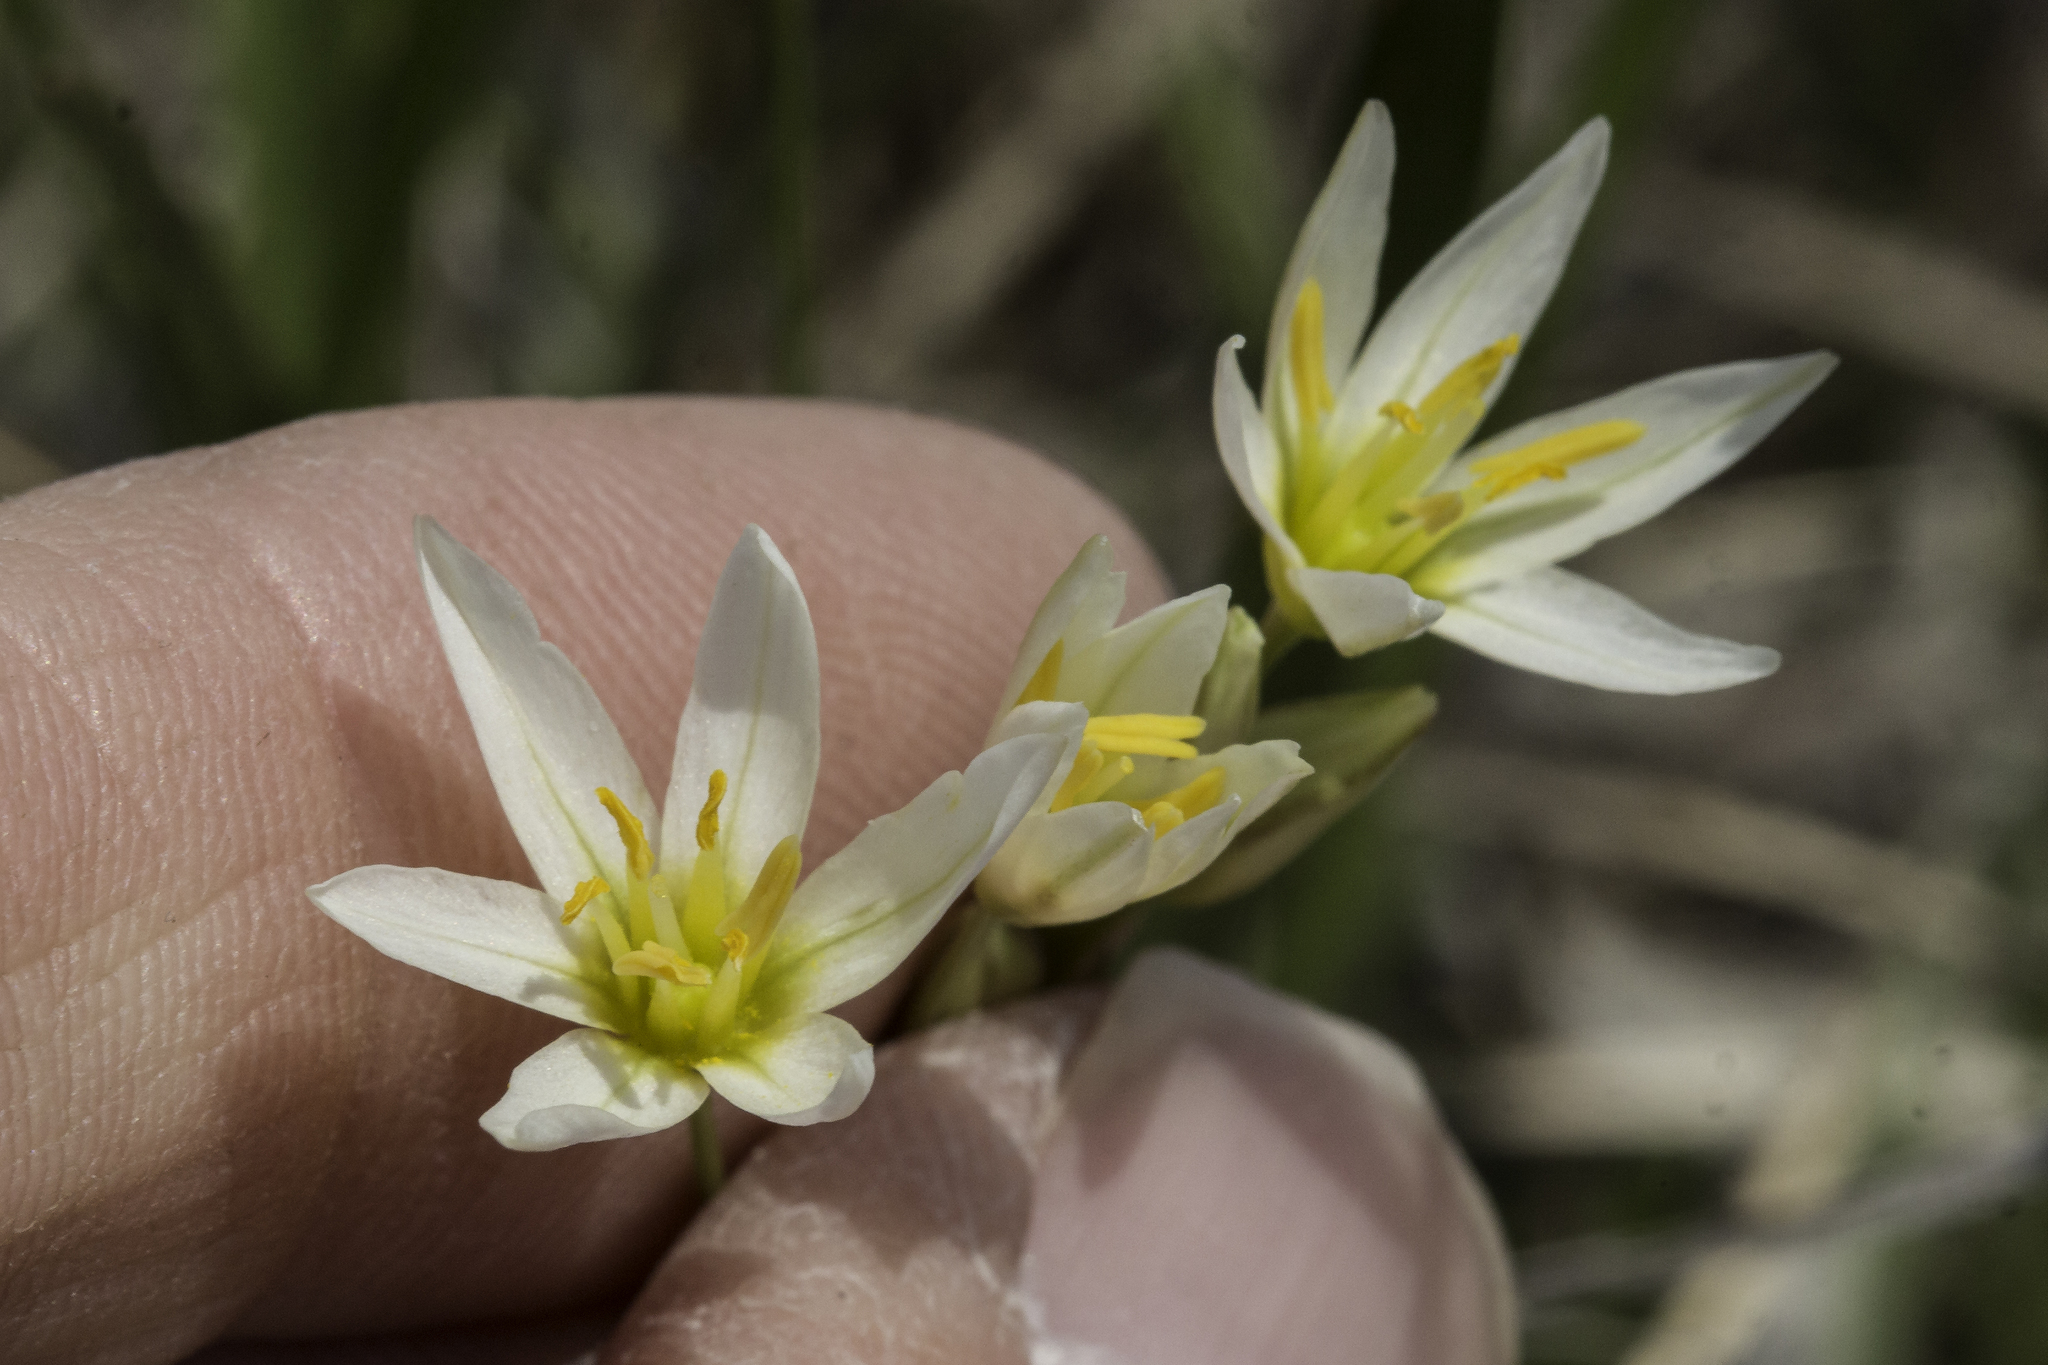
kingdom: Plantae
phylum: Tracheophyta
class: Liliopsida
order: Asparagales
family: Amaryllidaceae
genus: Nothoscordum
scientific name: Nothoscordum bivalve
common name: Crow-poison
